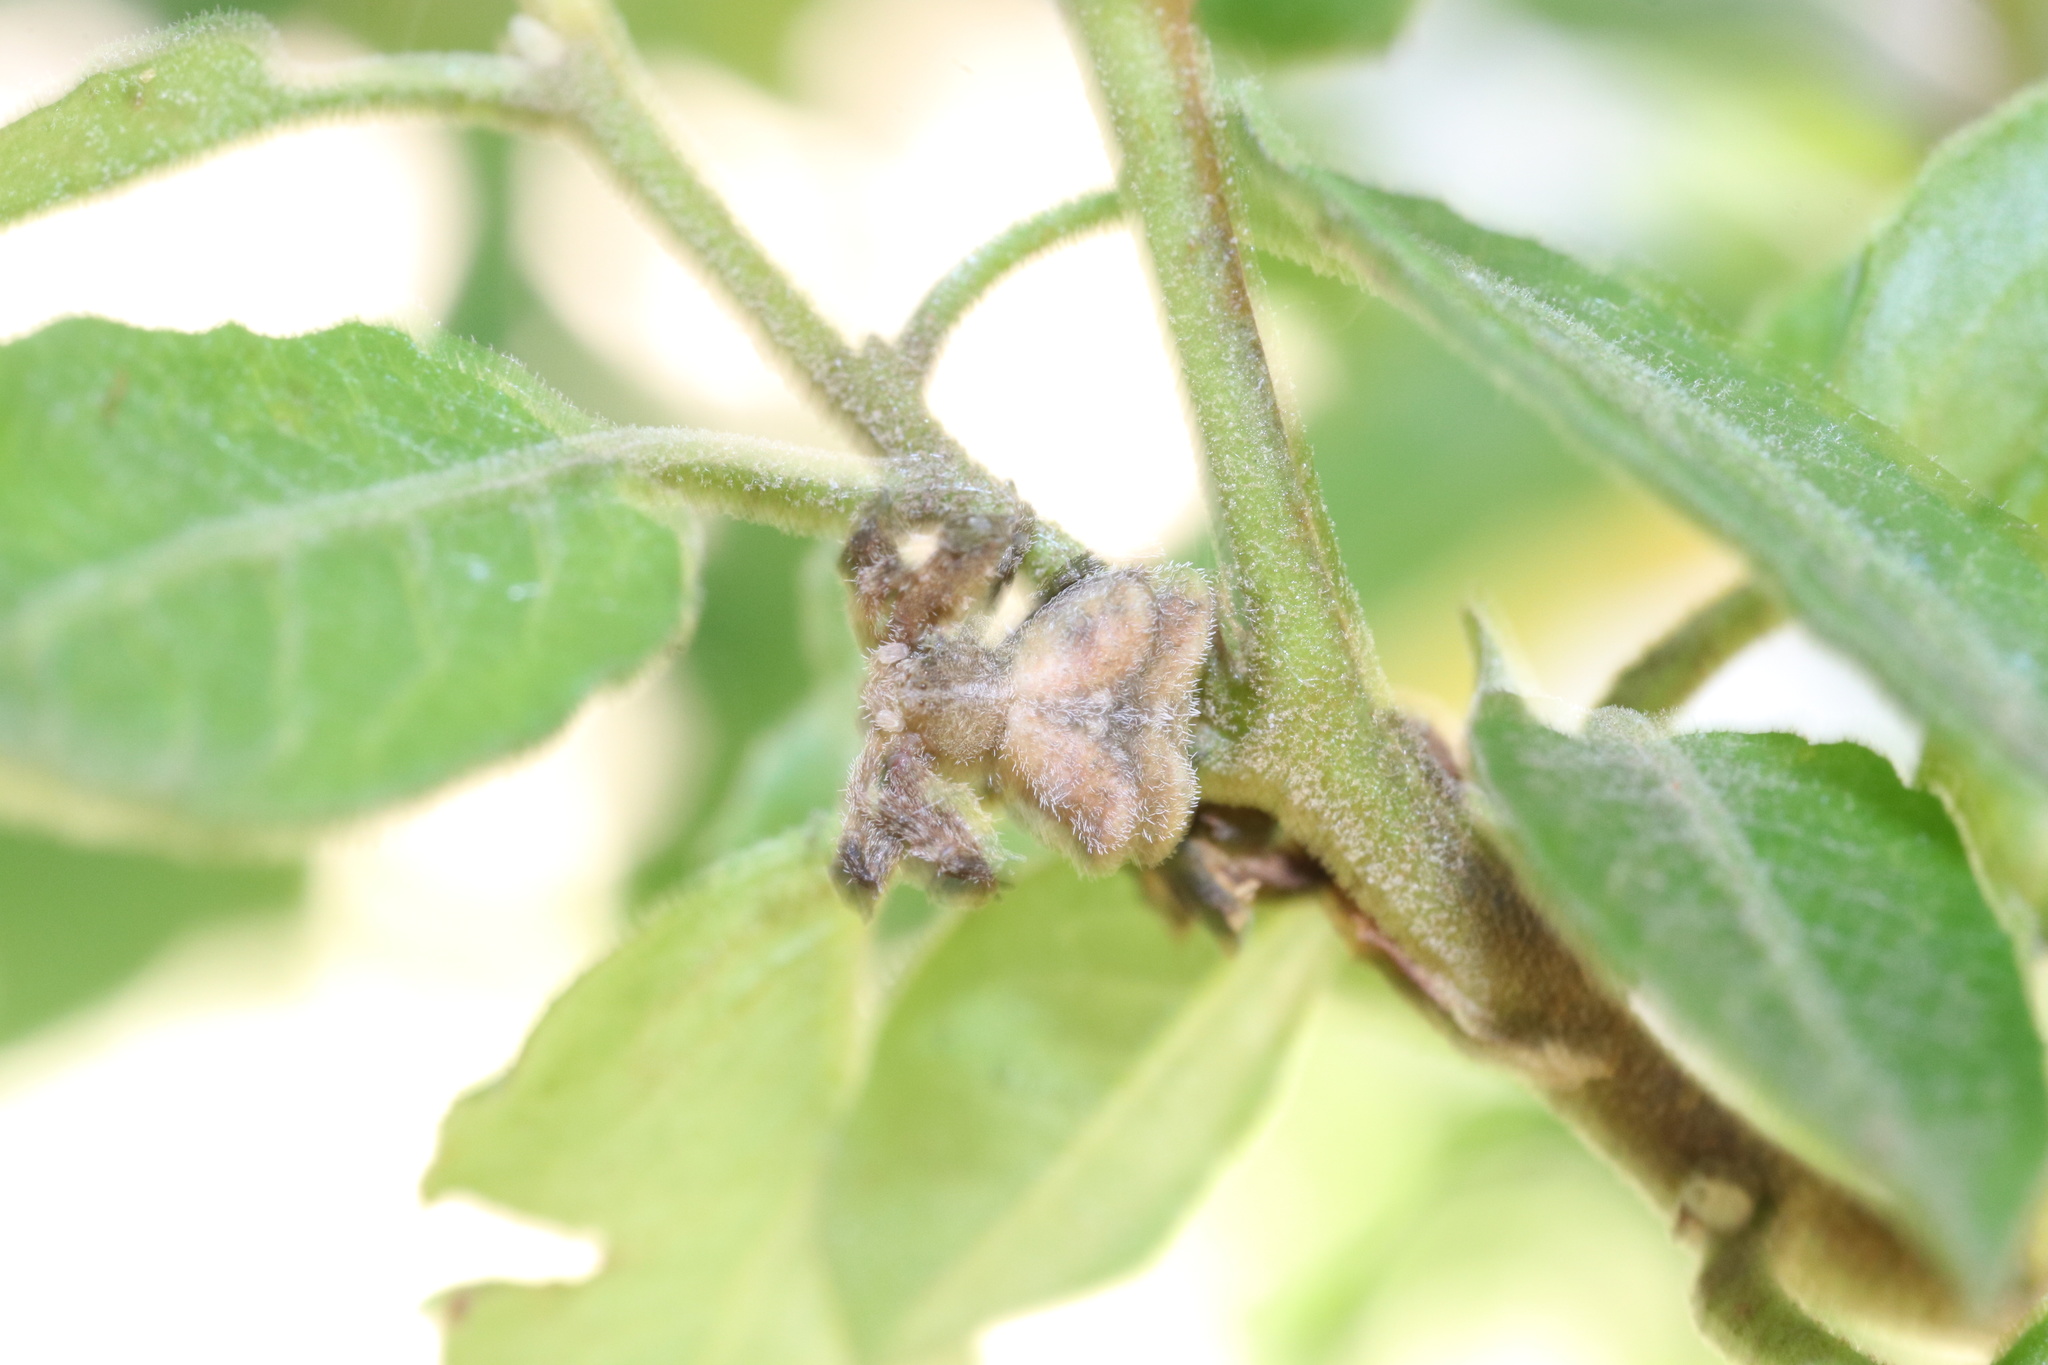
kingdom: Animalia
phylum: Arthropoda
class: Arachnida
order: Araneae
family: Thomisidae
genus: Coenypha
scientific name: Coenypha ditissima
